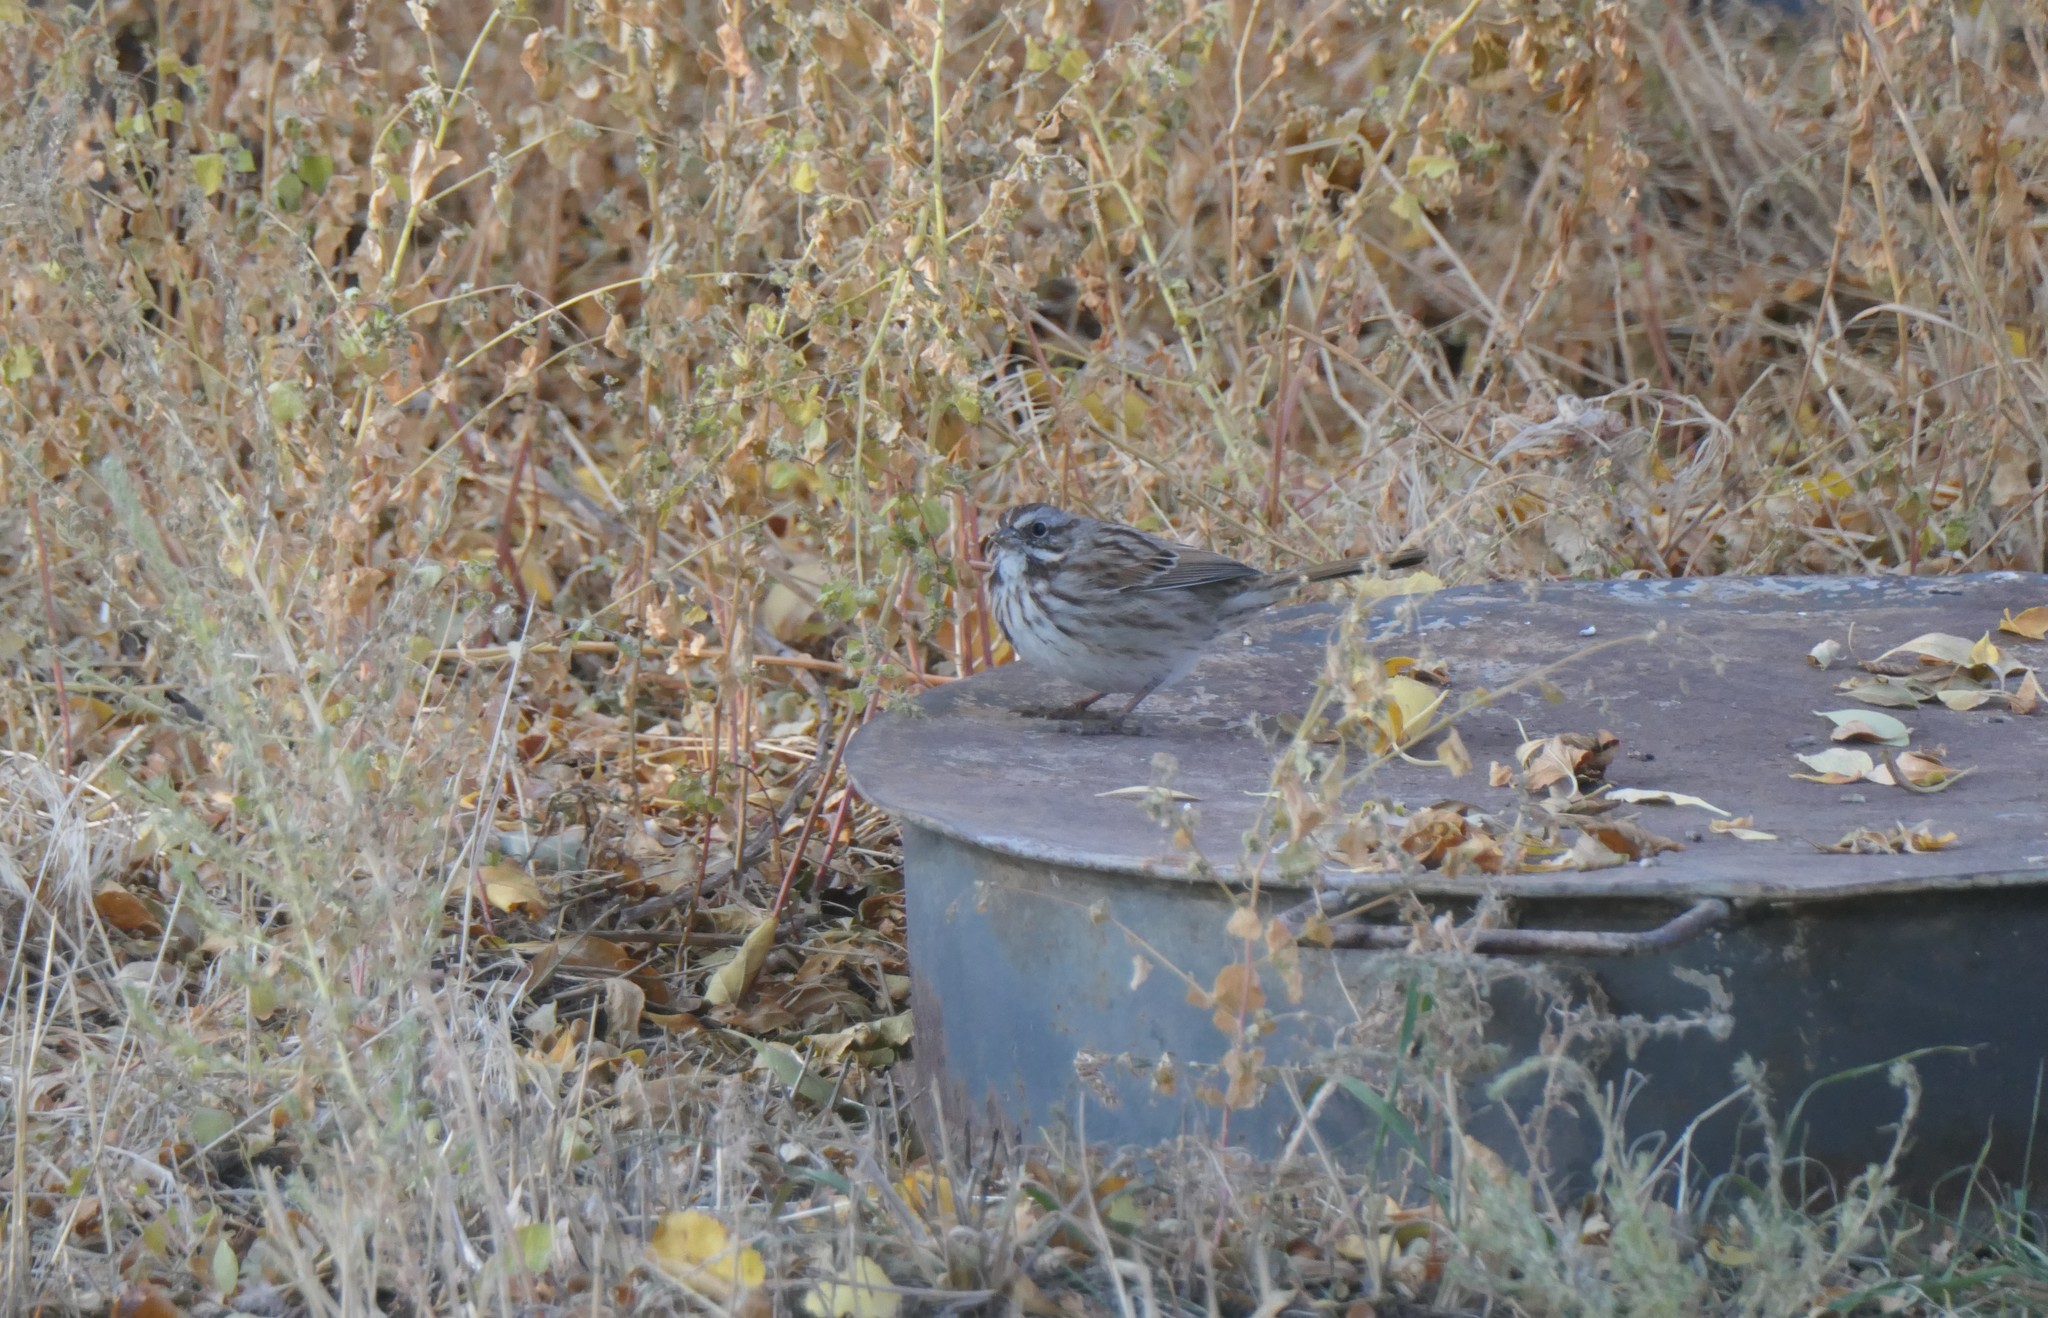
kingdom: Animalia
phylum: Chordata
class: Aves
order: Passeriformes
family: Passerellidae
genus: Melospiza
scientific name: Melospiza melodia
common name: Song sparrow
